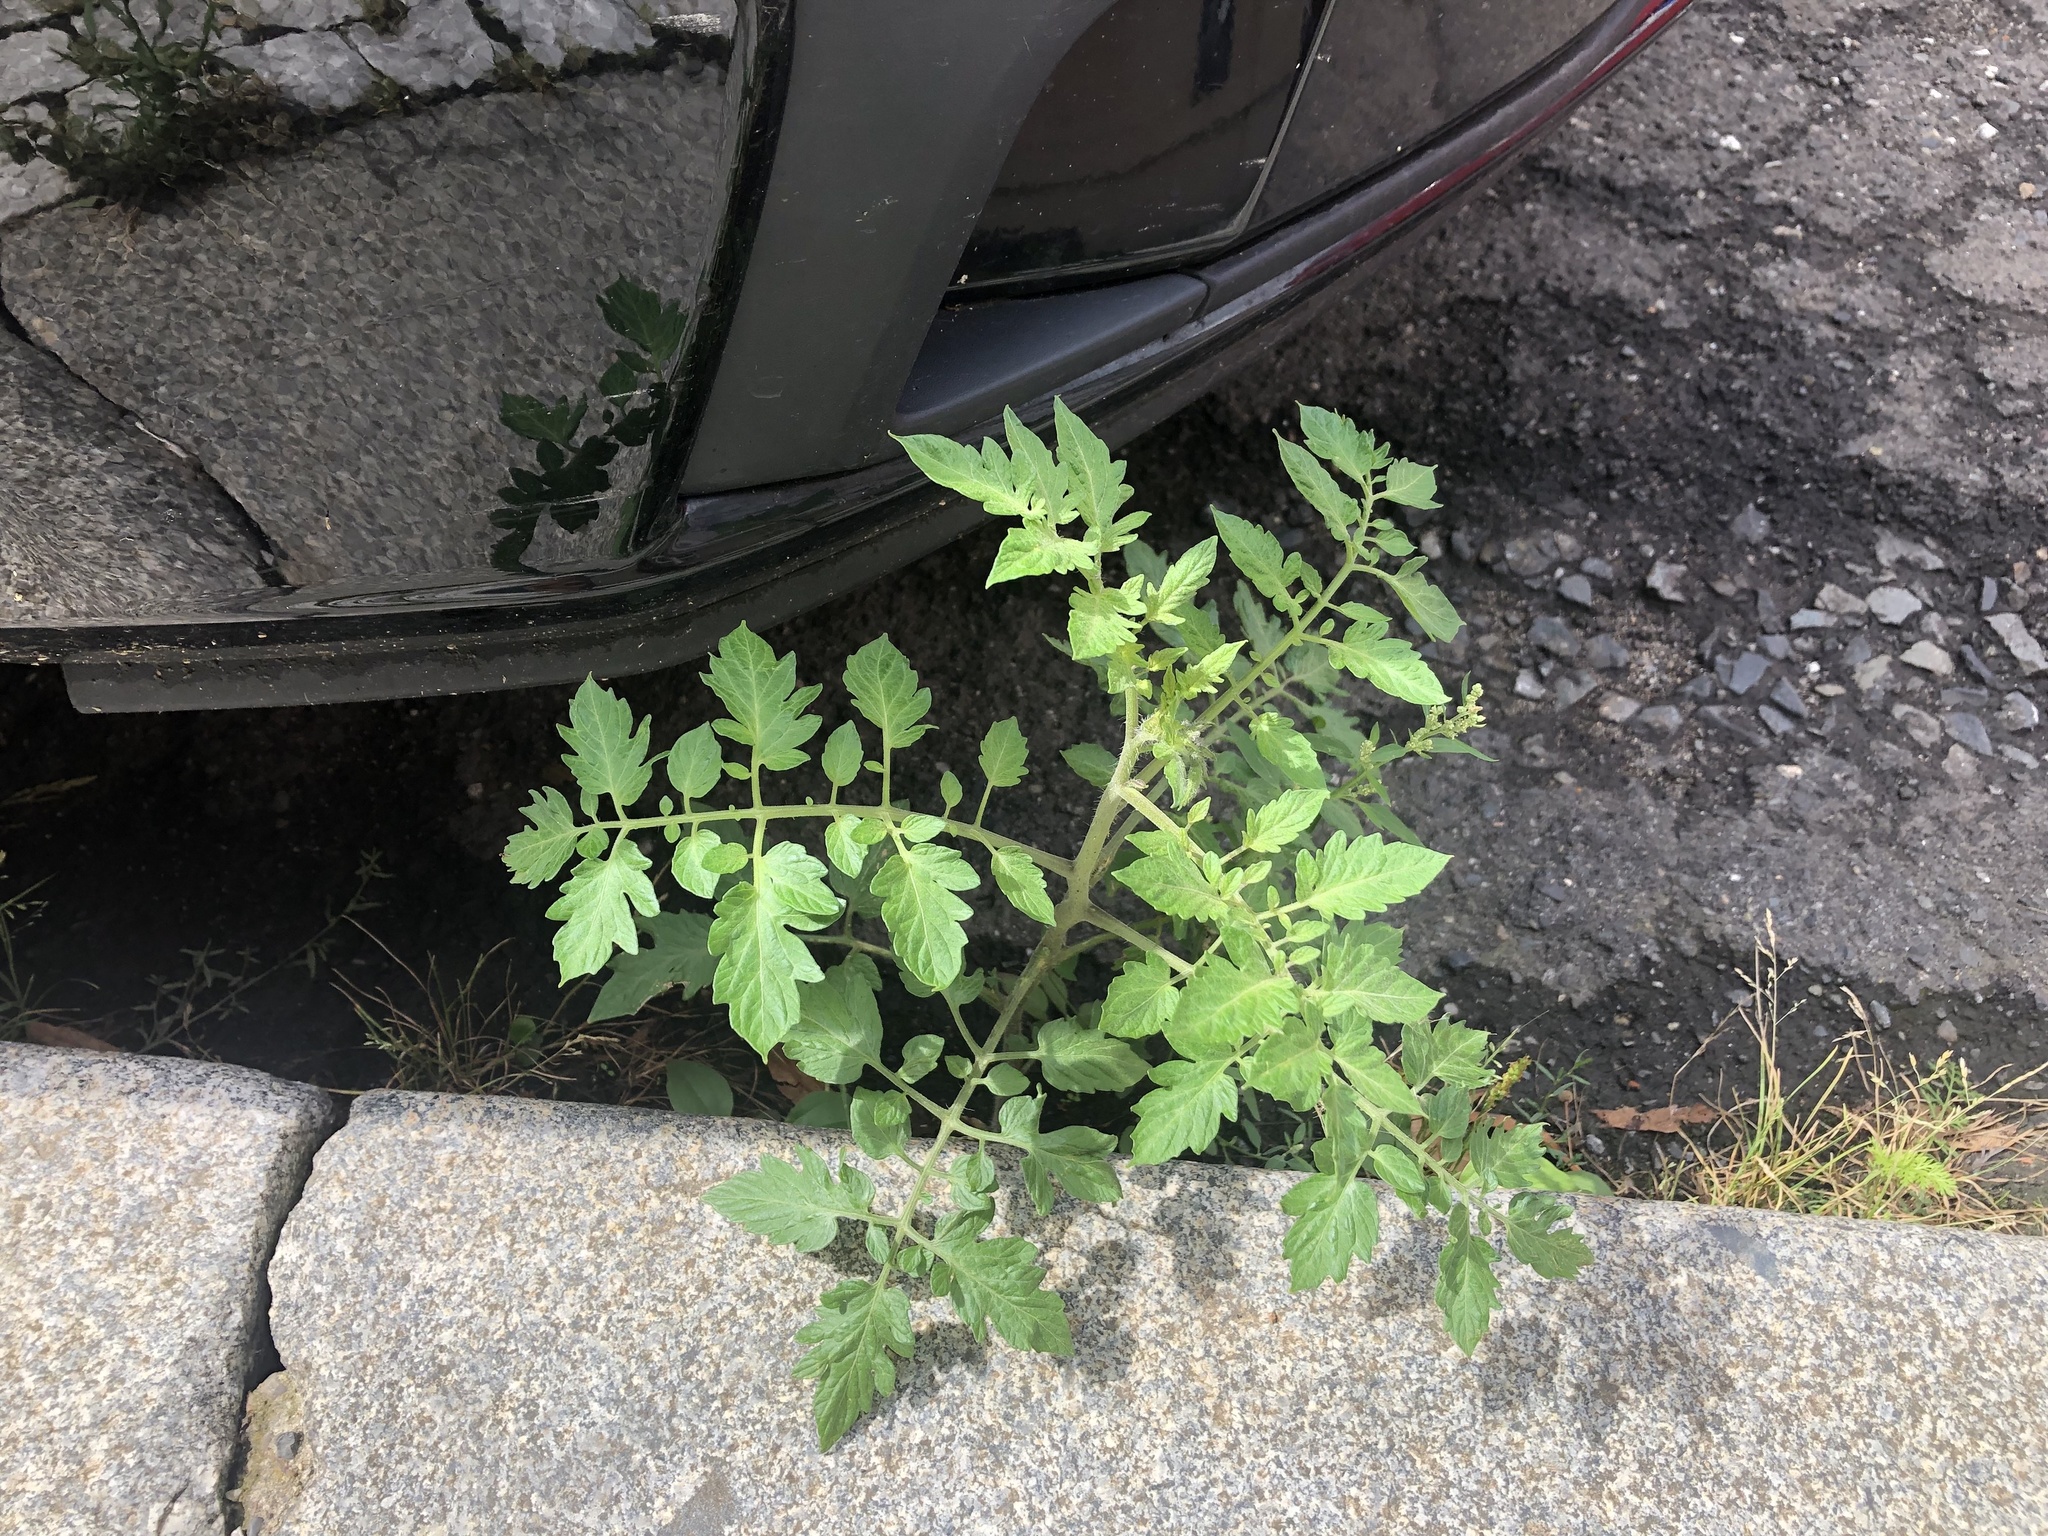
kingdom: Plantae
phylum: Tracheophyta
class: Magnoliopsida
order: Solanales
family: Solanaceae
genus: Solanum
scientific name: Solanum lycopersicum
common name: Garden tomato
